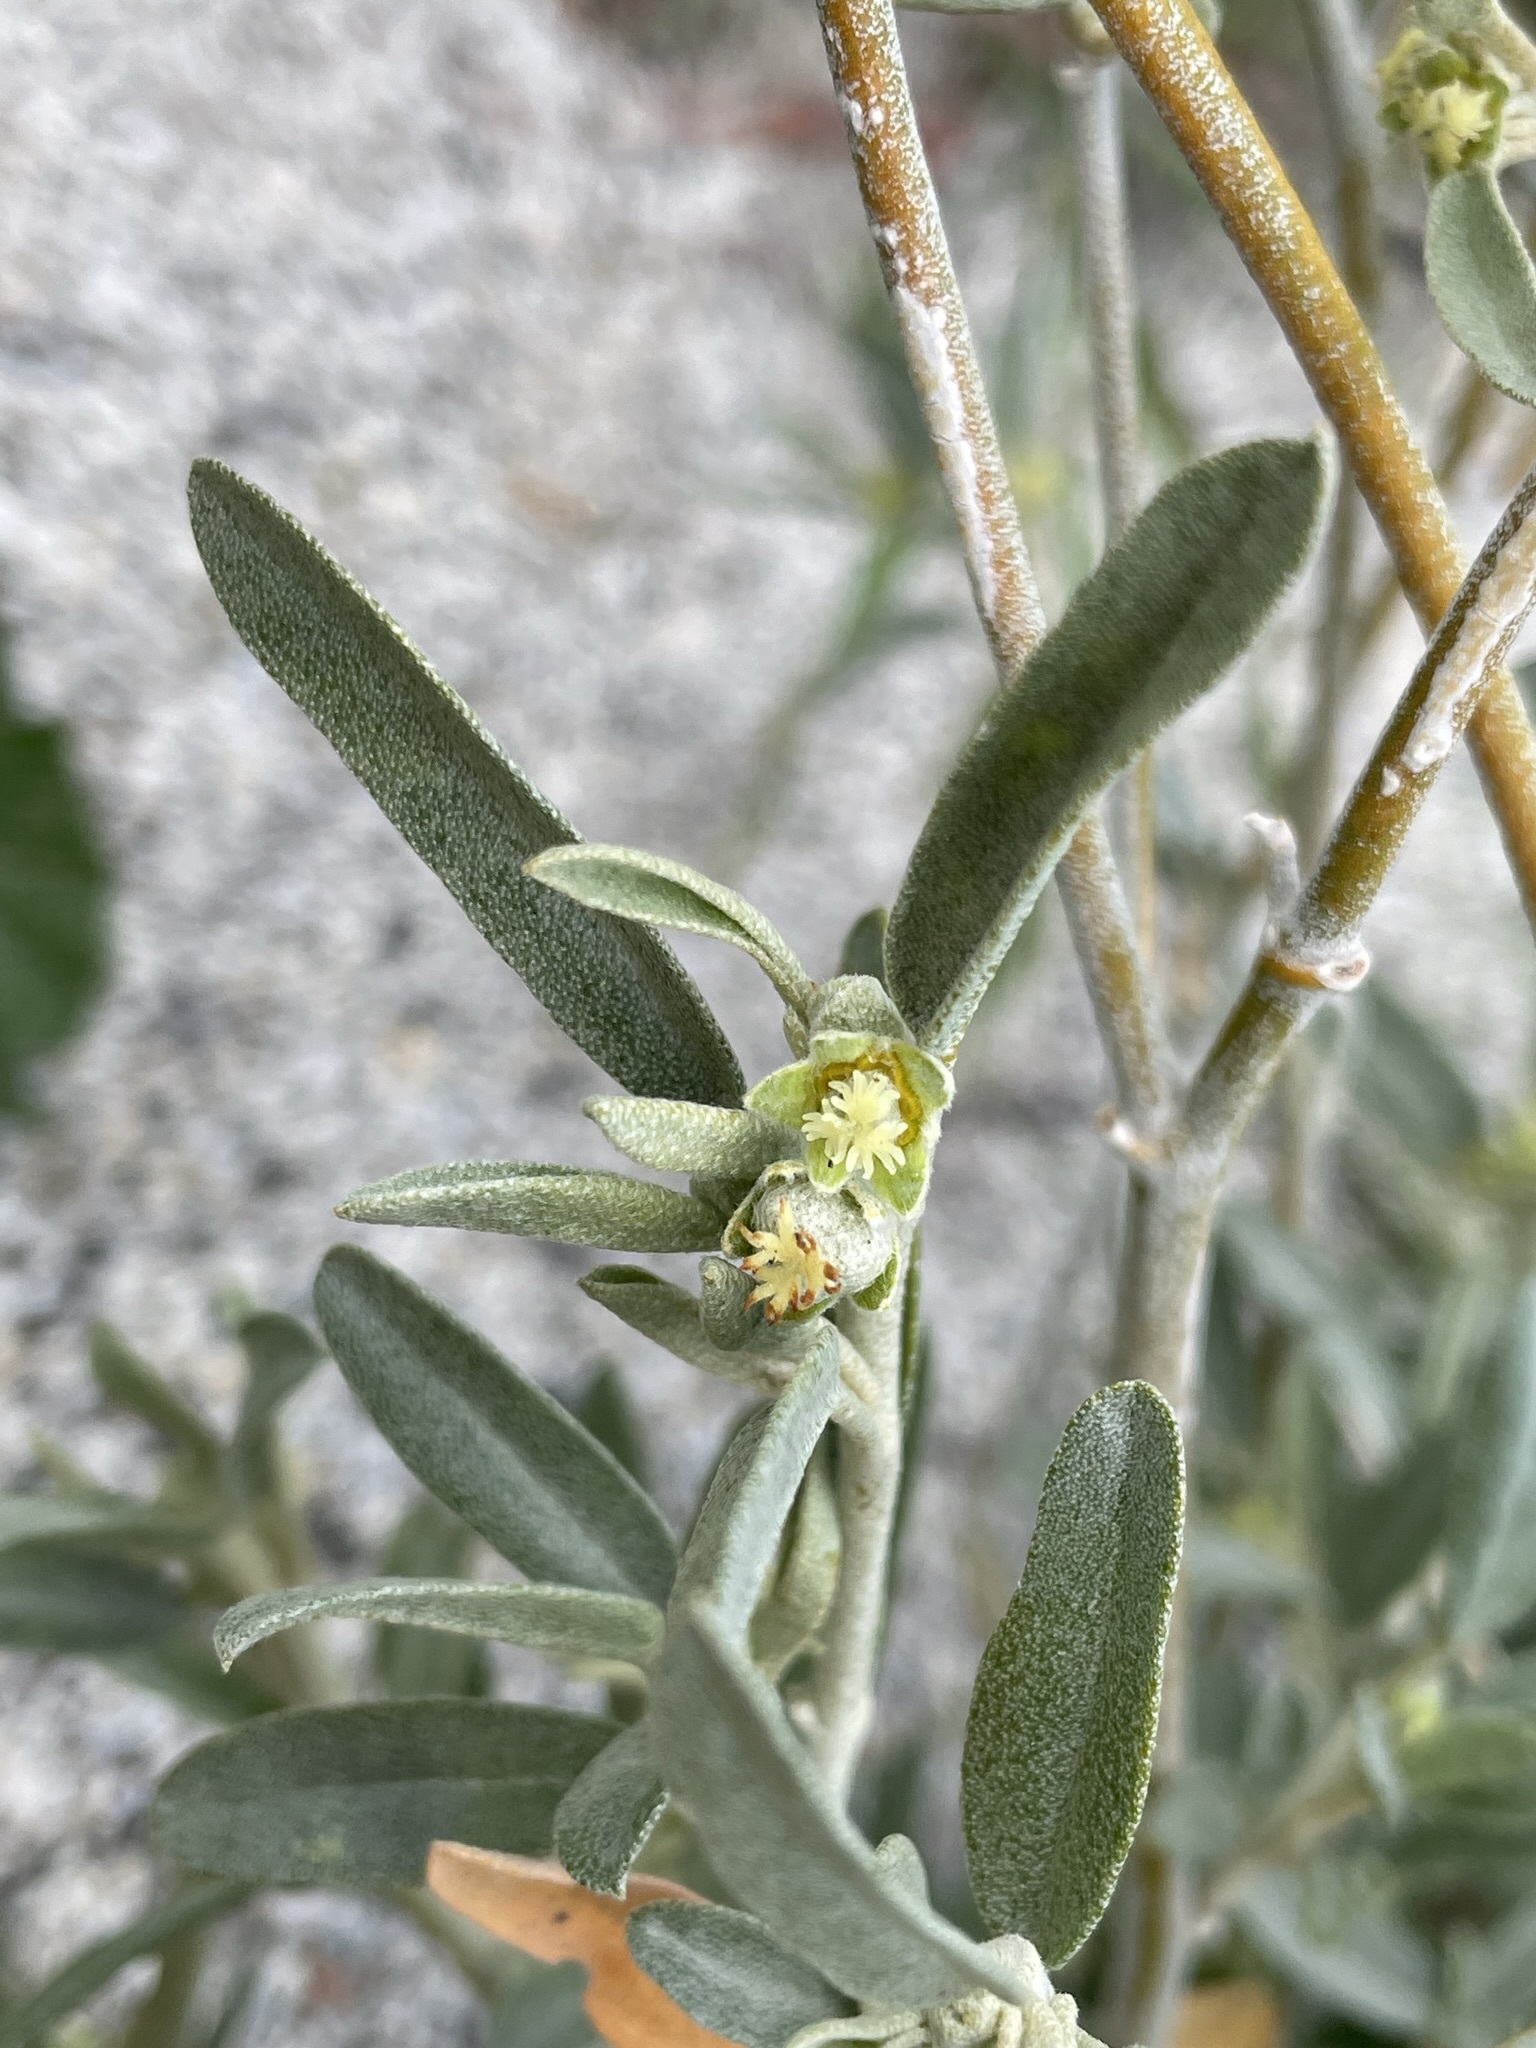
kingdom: Plantae
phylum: Tracheophyta
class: Magnoliopsida
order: Malpighiales
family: Euphorbiaceae
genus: Croton
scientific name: Croton californicus
